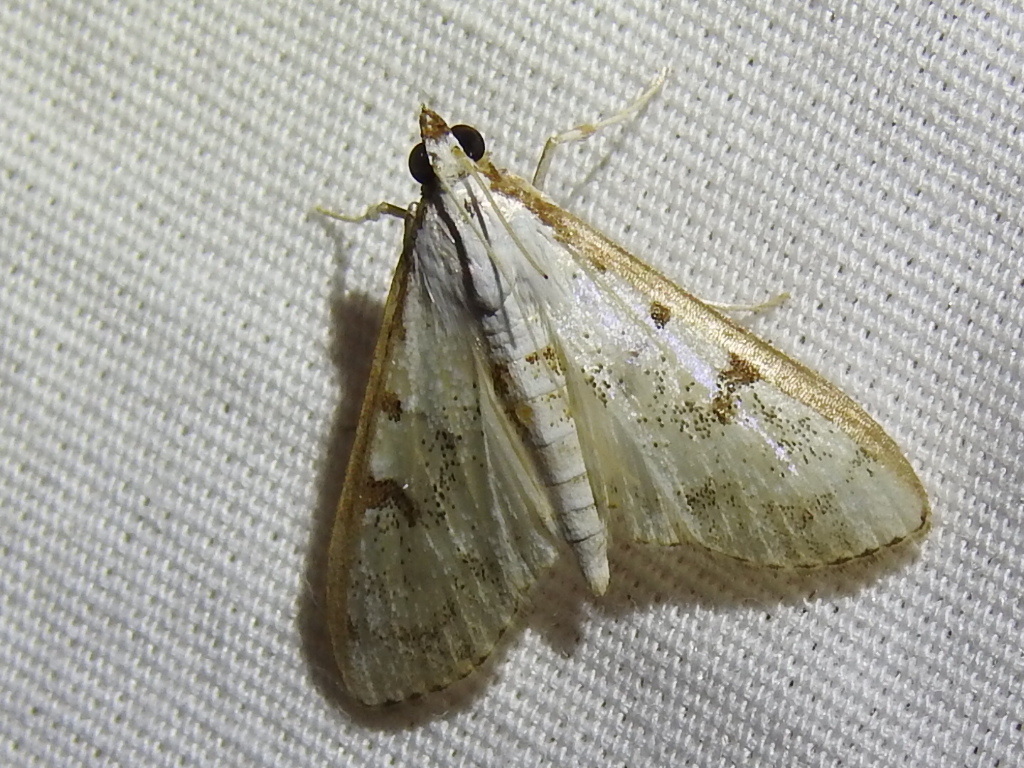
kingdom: Animalia
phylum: Arthropoda
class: Insecta
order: Lepidoptera
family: Crambidae
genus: Palpita
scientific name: Palpita gracilalis
